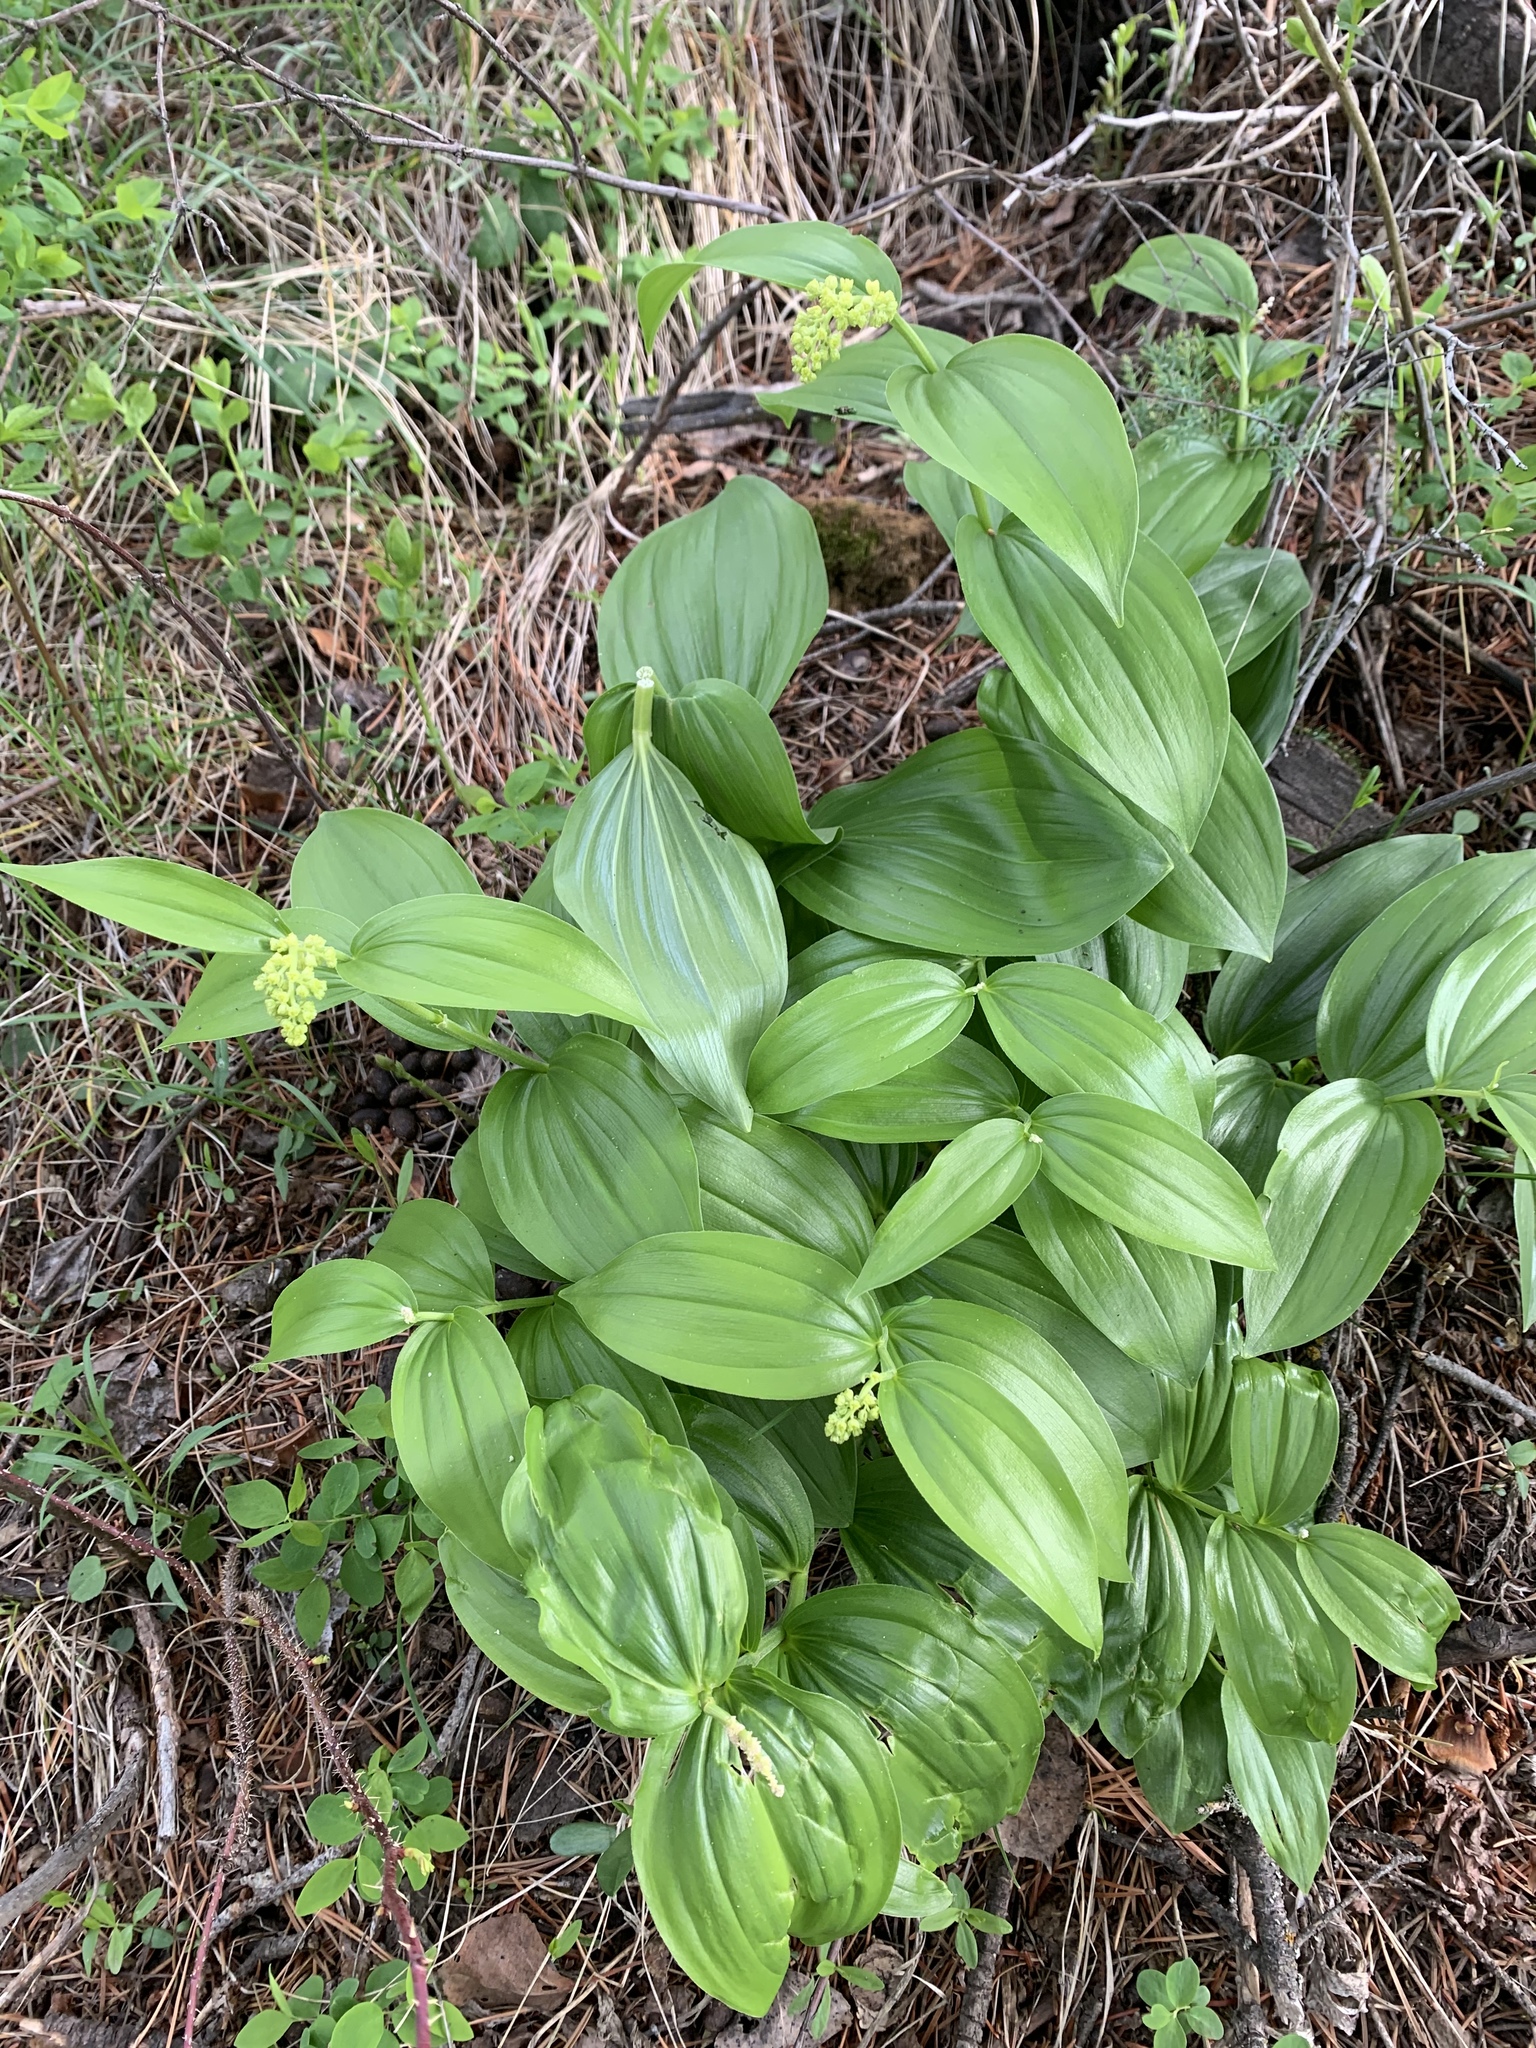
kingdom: Plantae
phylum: Tracheophyta
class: Liliopsida
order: Asparagales
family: Asparagaceae
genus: Maianthemum
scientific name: Maianthemum racemosum
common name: False spikenard
